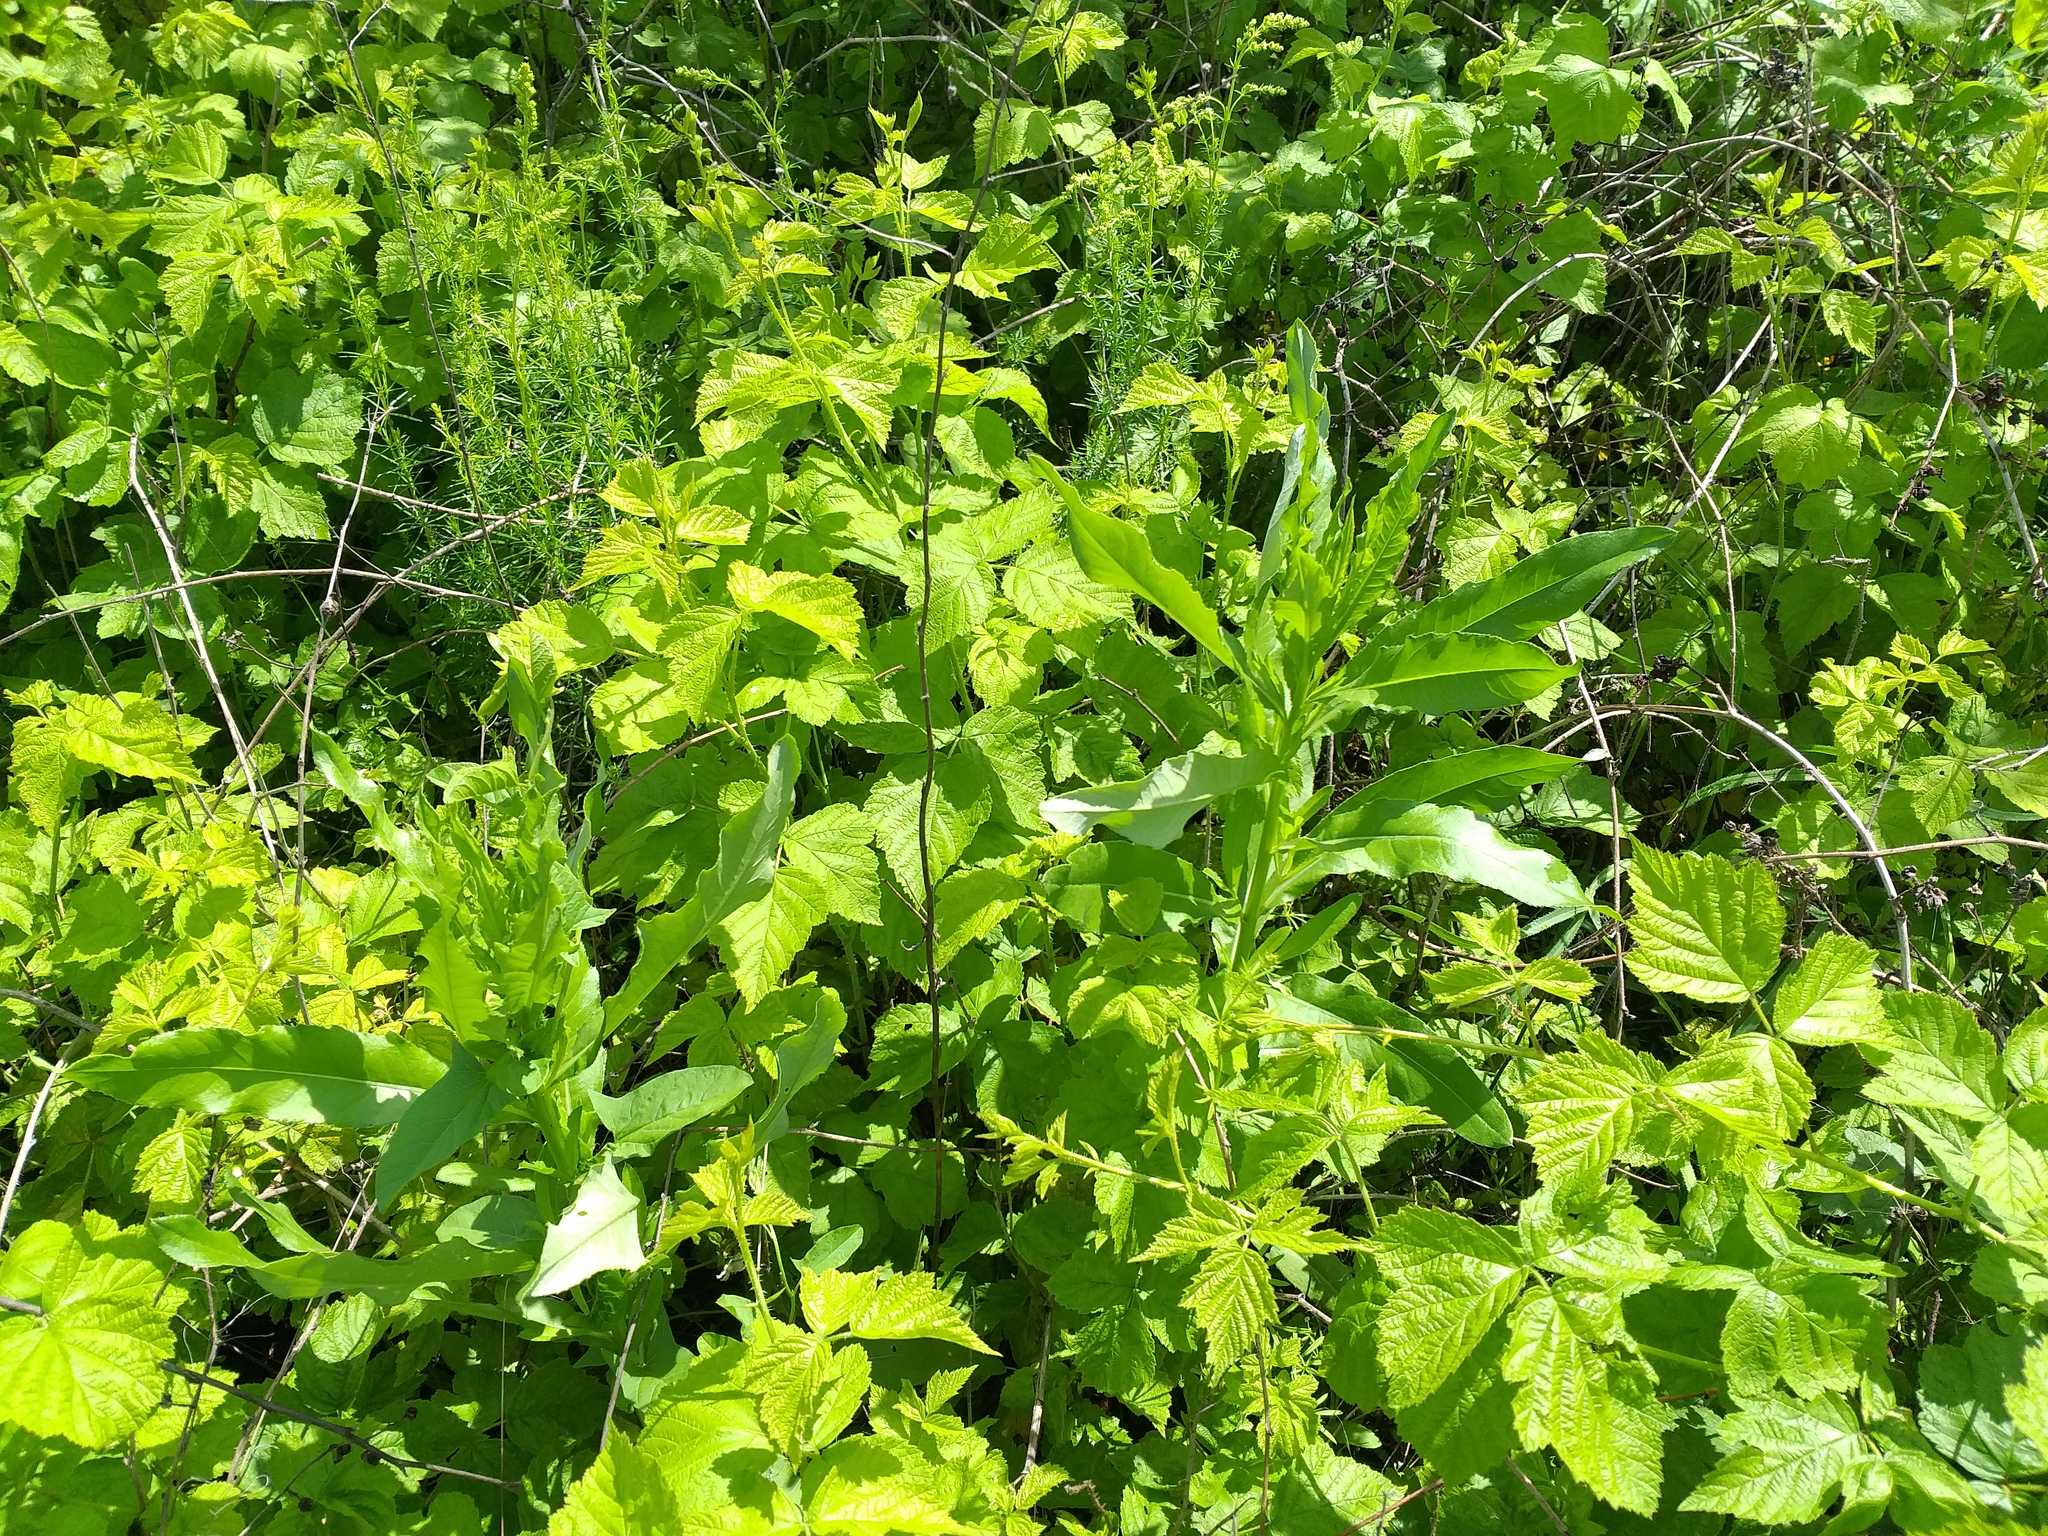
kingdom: Plantae
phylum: Tracheophyta
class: Magnoliopsida
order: Rosales
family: Rosaceae
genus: Rubus
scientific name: Rubus caesius
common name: Dewberry
